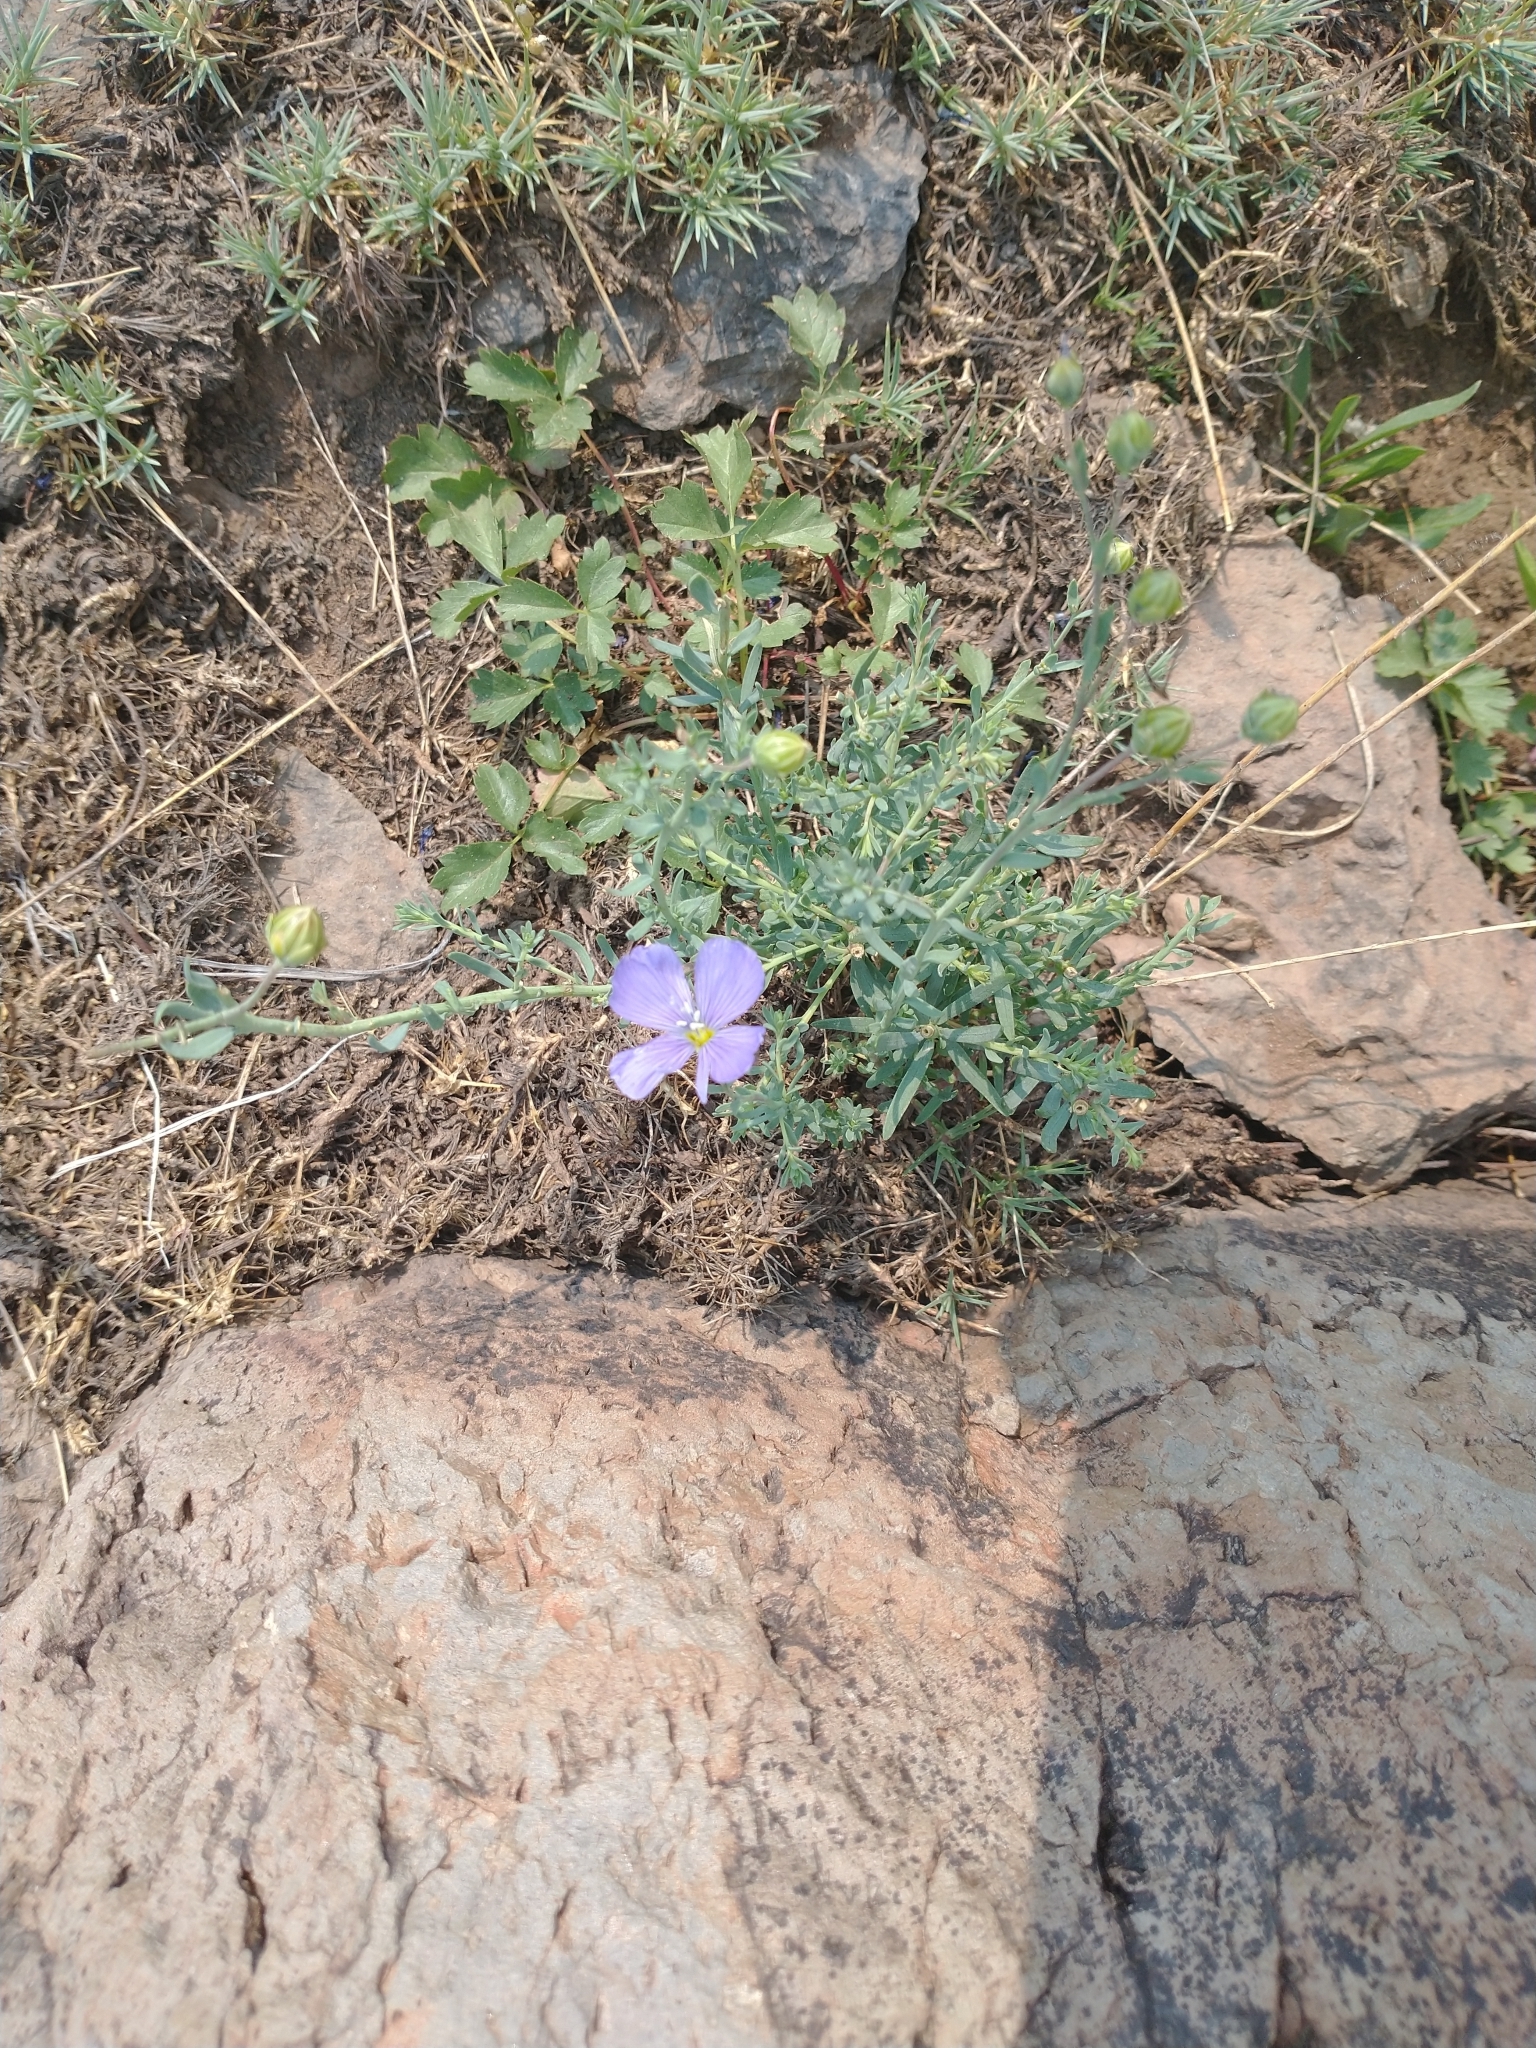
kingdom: Plantae
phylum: Tracheophyta
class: Magnoliopsida
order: Malpighiales
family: Linaceae
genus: Linum
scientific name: Linum lewisii
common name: Prairie flax
